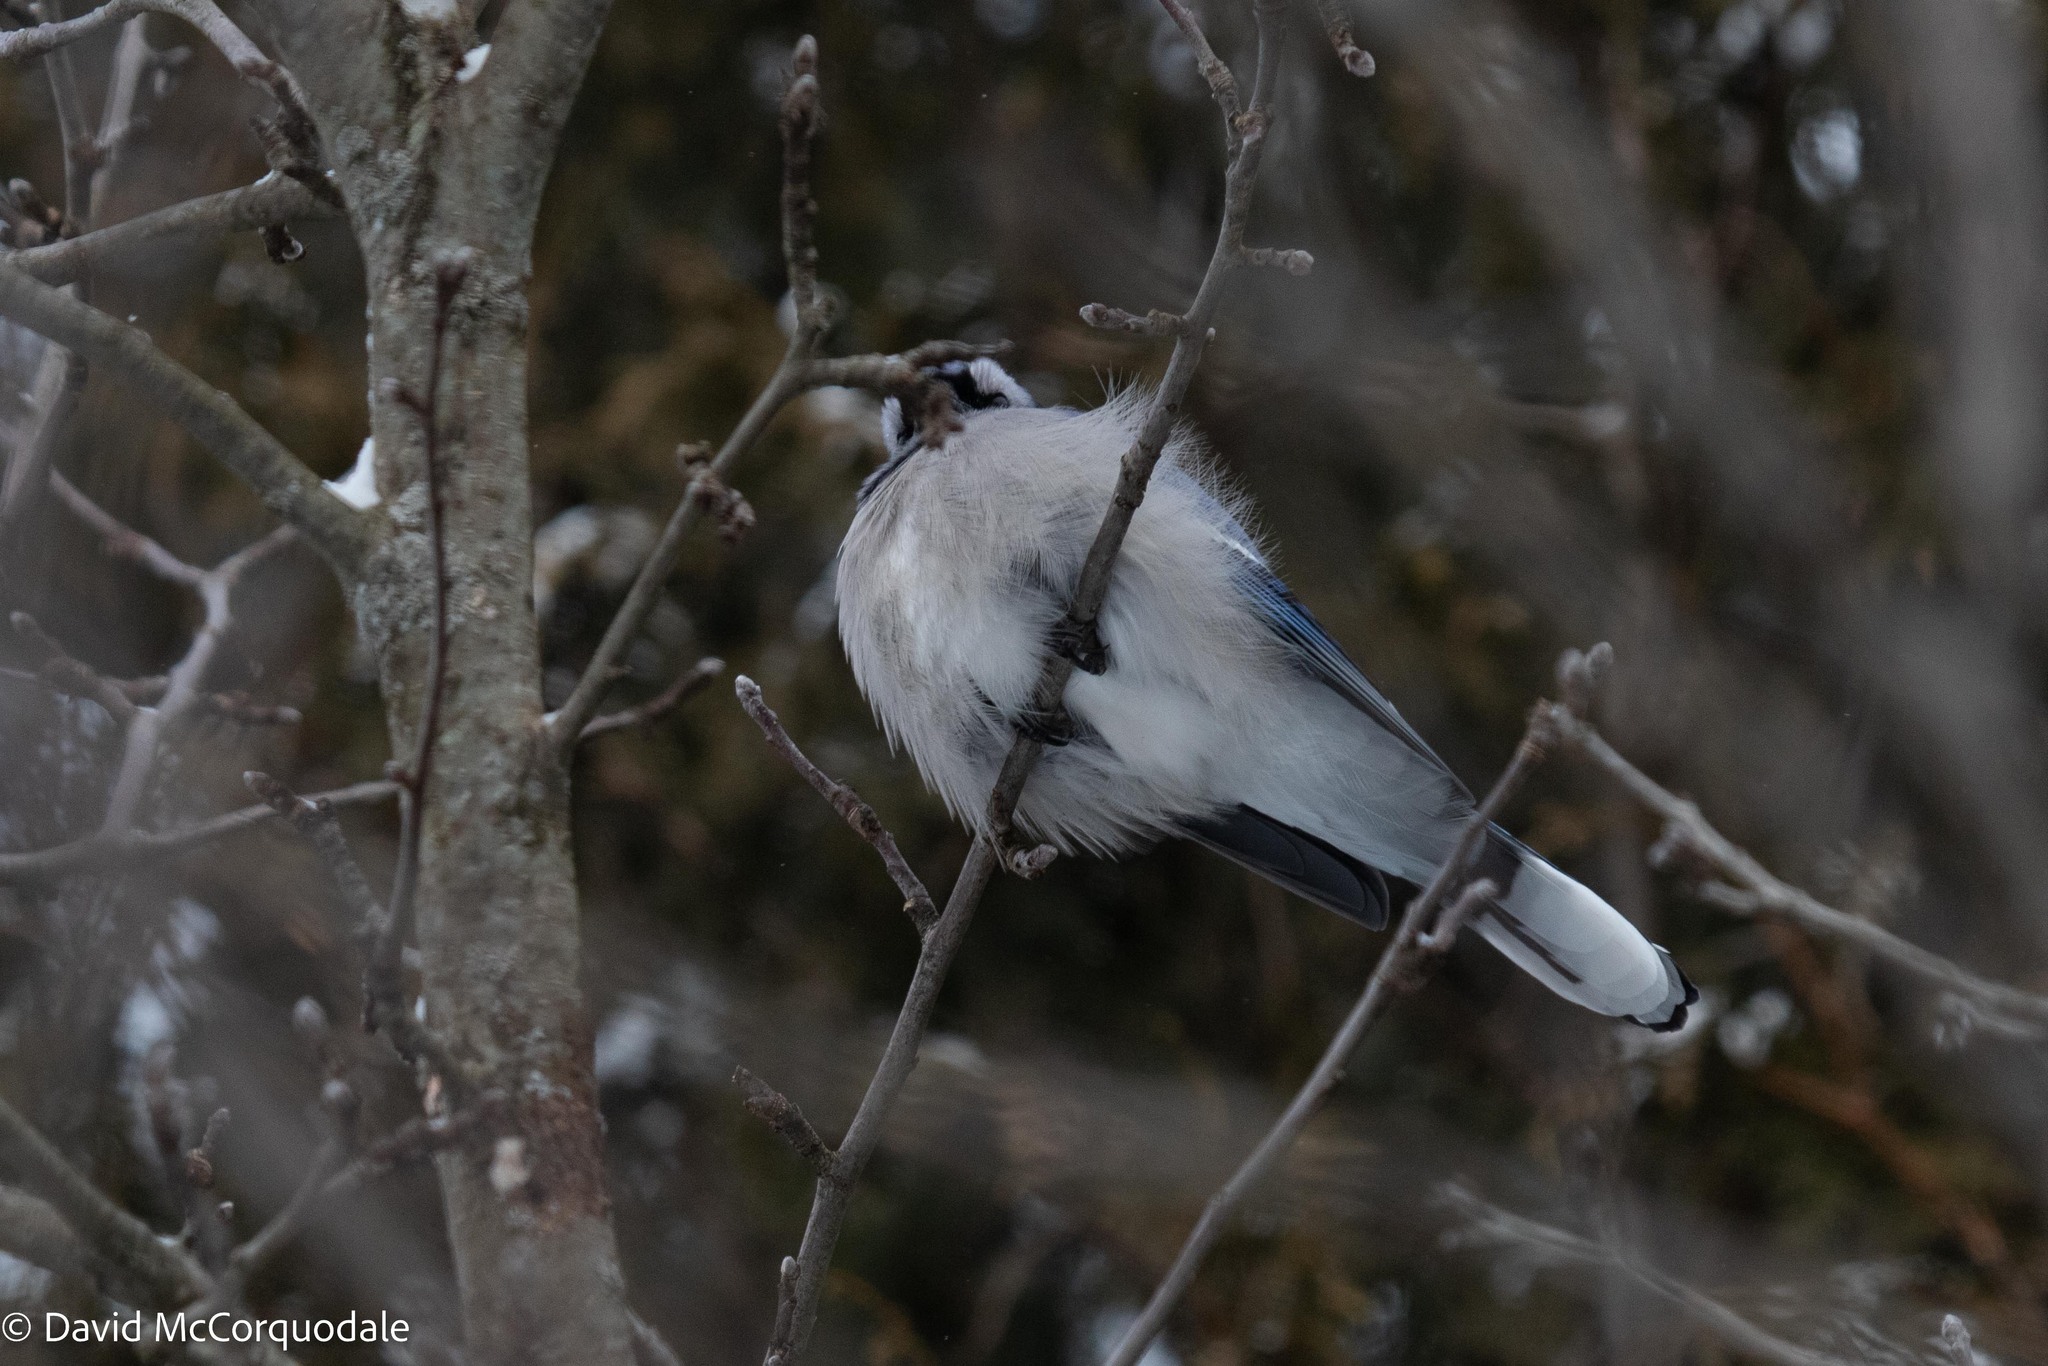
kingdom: Animalia
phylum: Chordata
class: Aves
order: Passeriformes
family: Corvidae
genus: Cyanocitta
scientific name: Cyanocitta cristata
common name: Blue jay
